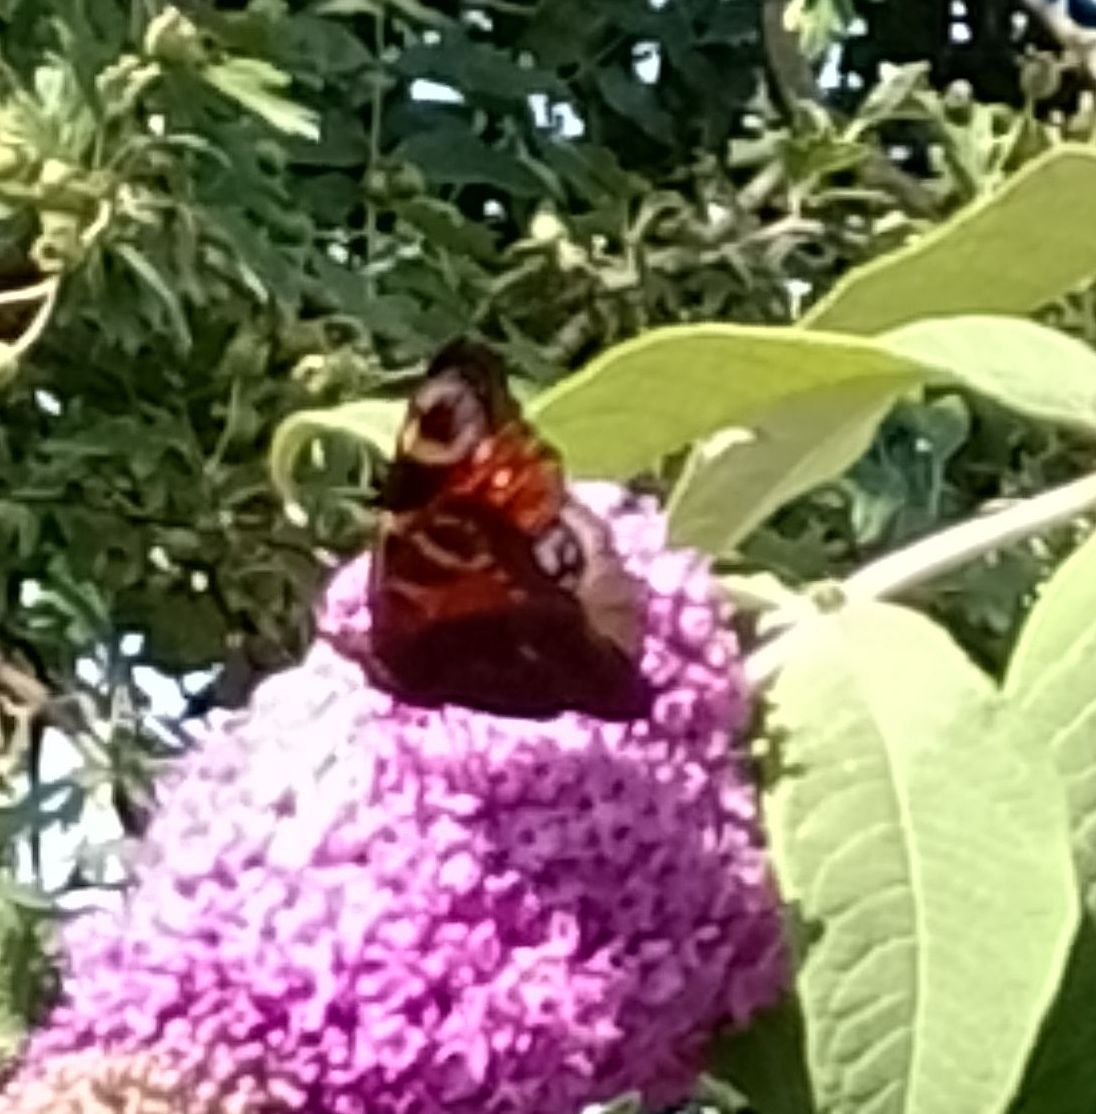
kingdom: Animalia
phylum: Arthropoda
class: Insecta
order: Lepidoptera
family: Nymphalidae
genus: Aglais
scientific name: Aglais io
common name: Peacock
